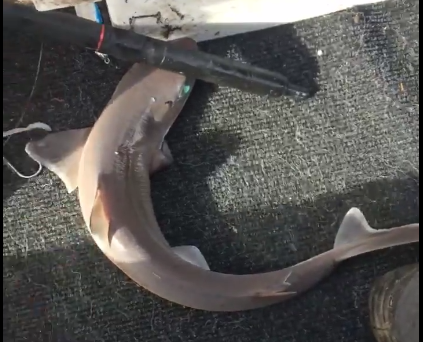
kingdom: Animalia
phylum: Chordata
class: Elasmobranchii
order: Squaliformes
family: Squalidae
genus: Squalus
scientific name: Squalus blainville
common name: Longnose spurdog
